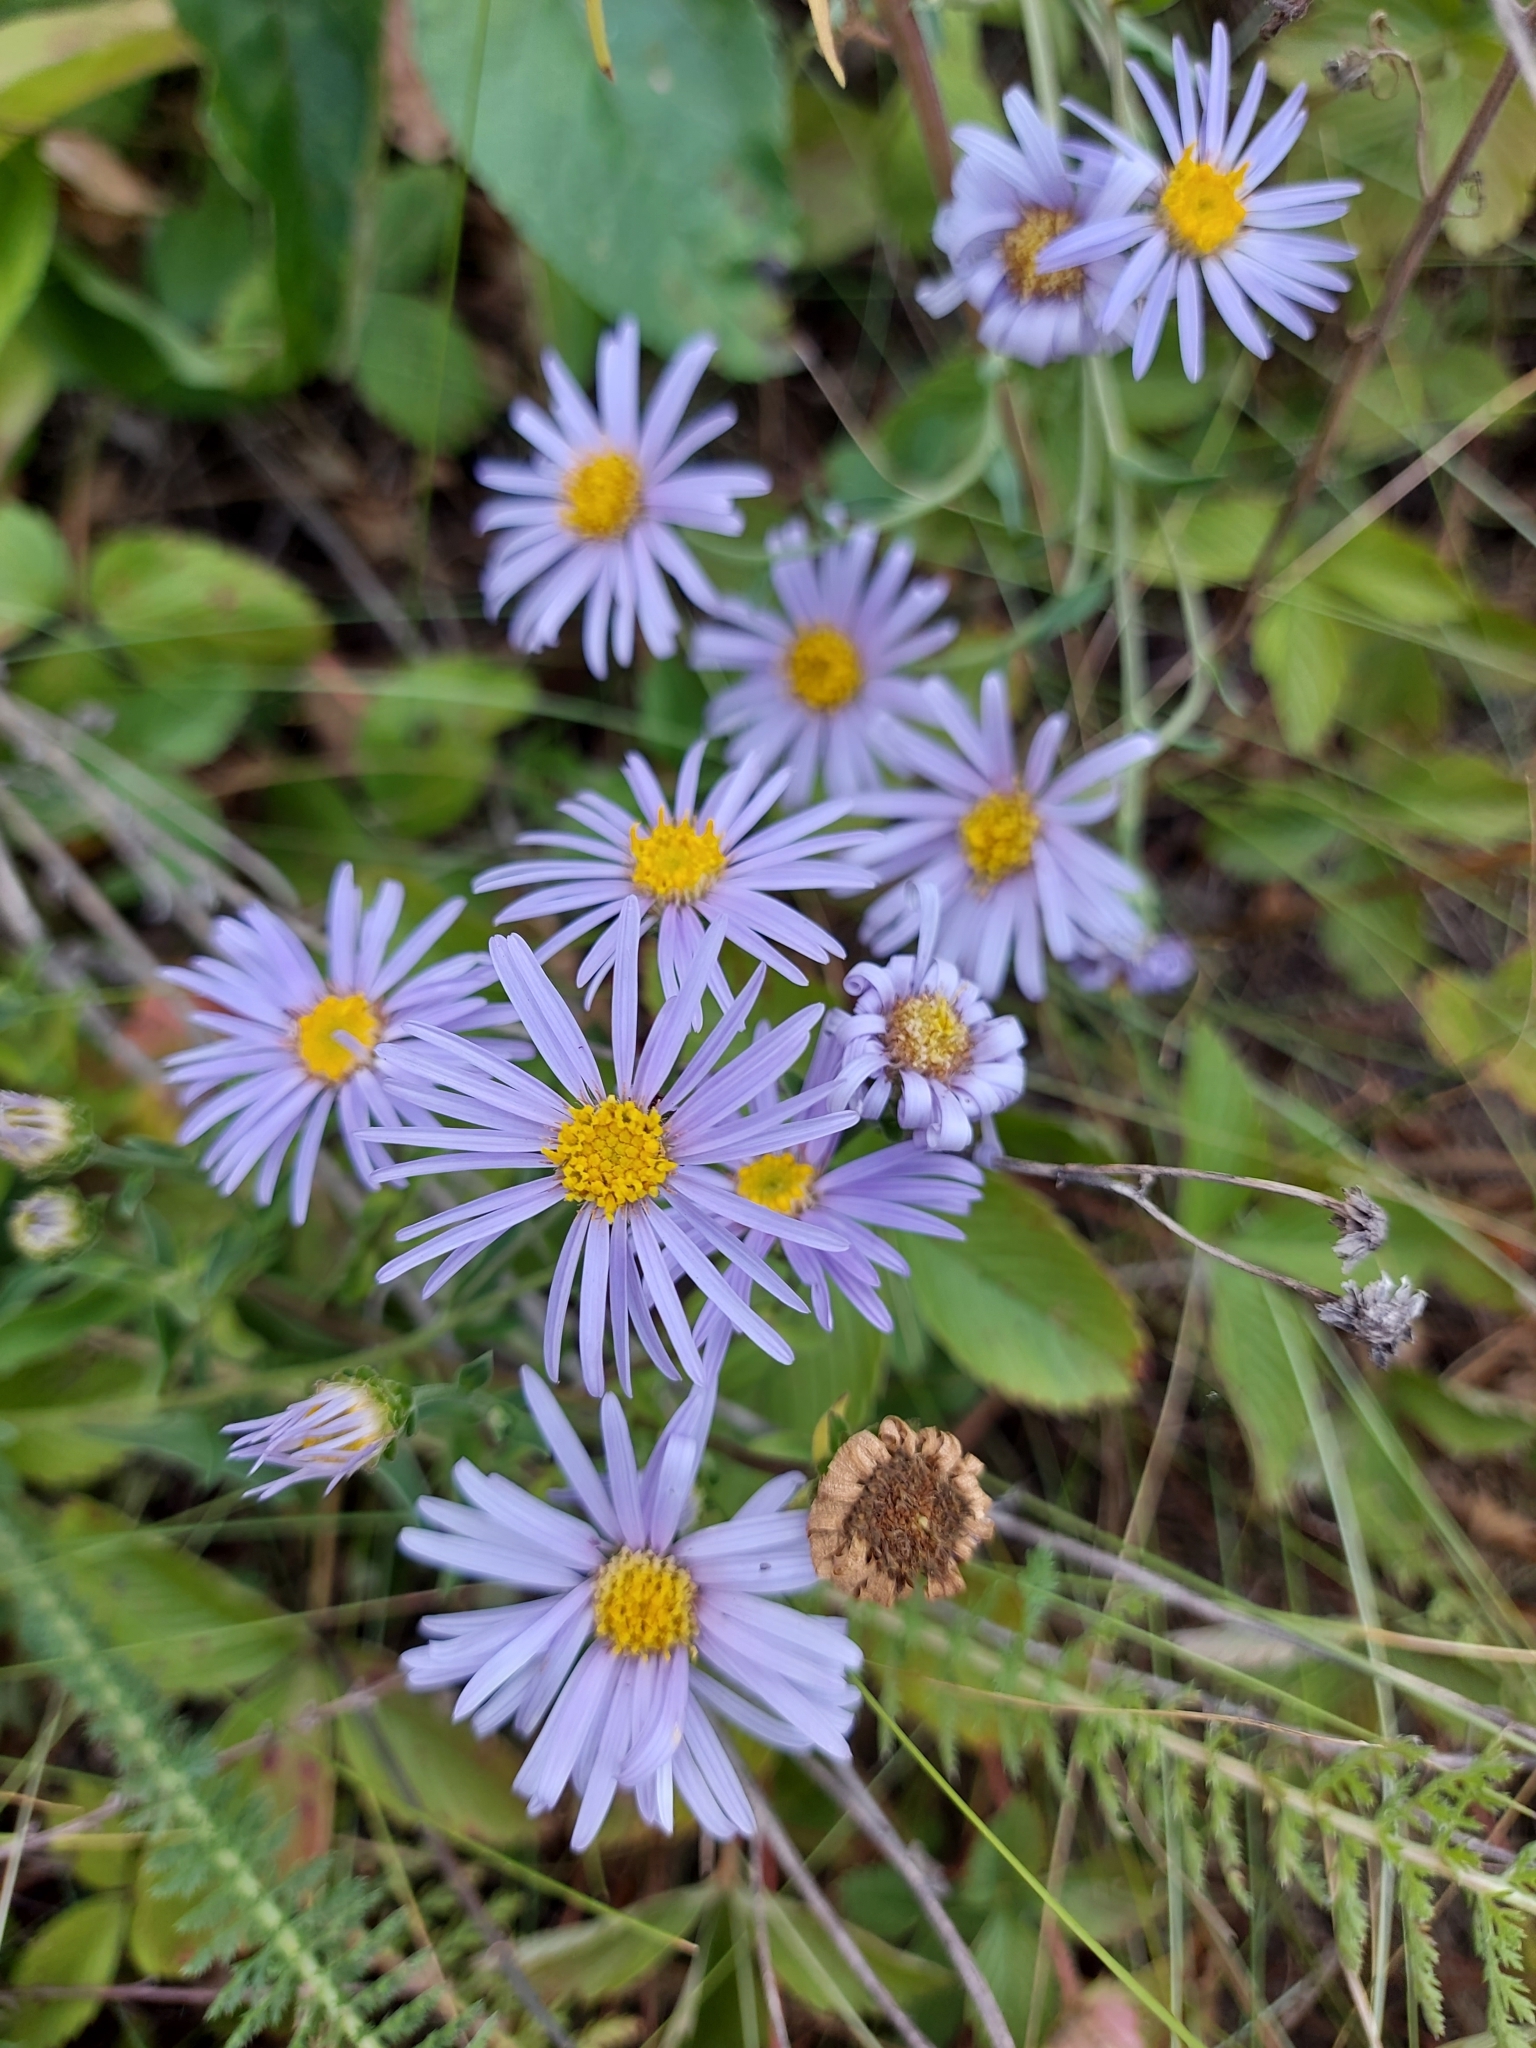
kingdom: Plantae
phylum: Tracheophyta
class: Magnoliopsida
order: Asterales
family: Asteraceae
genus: Aster
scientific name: Aster amellus
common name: European michaelmas daisy
